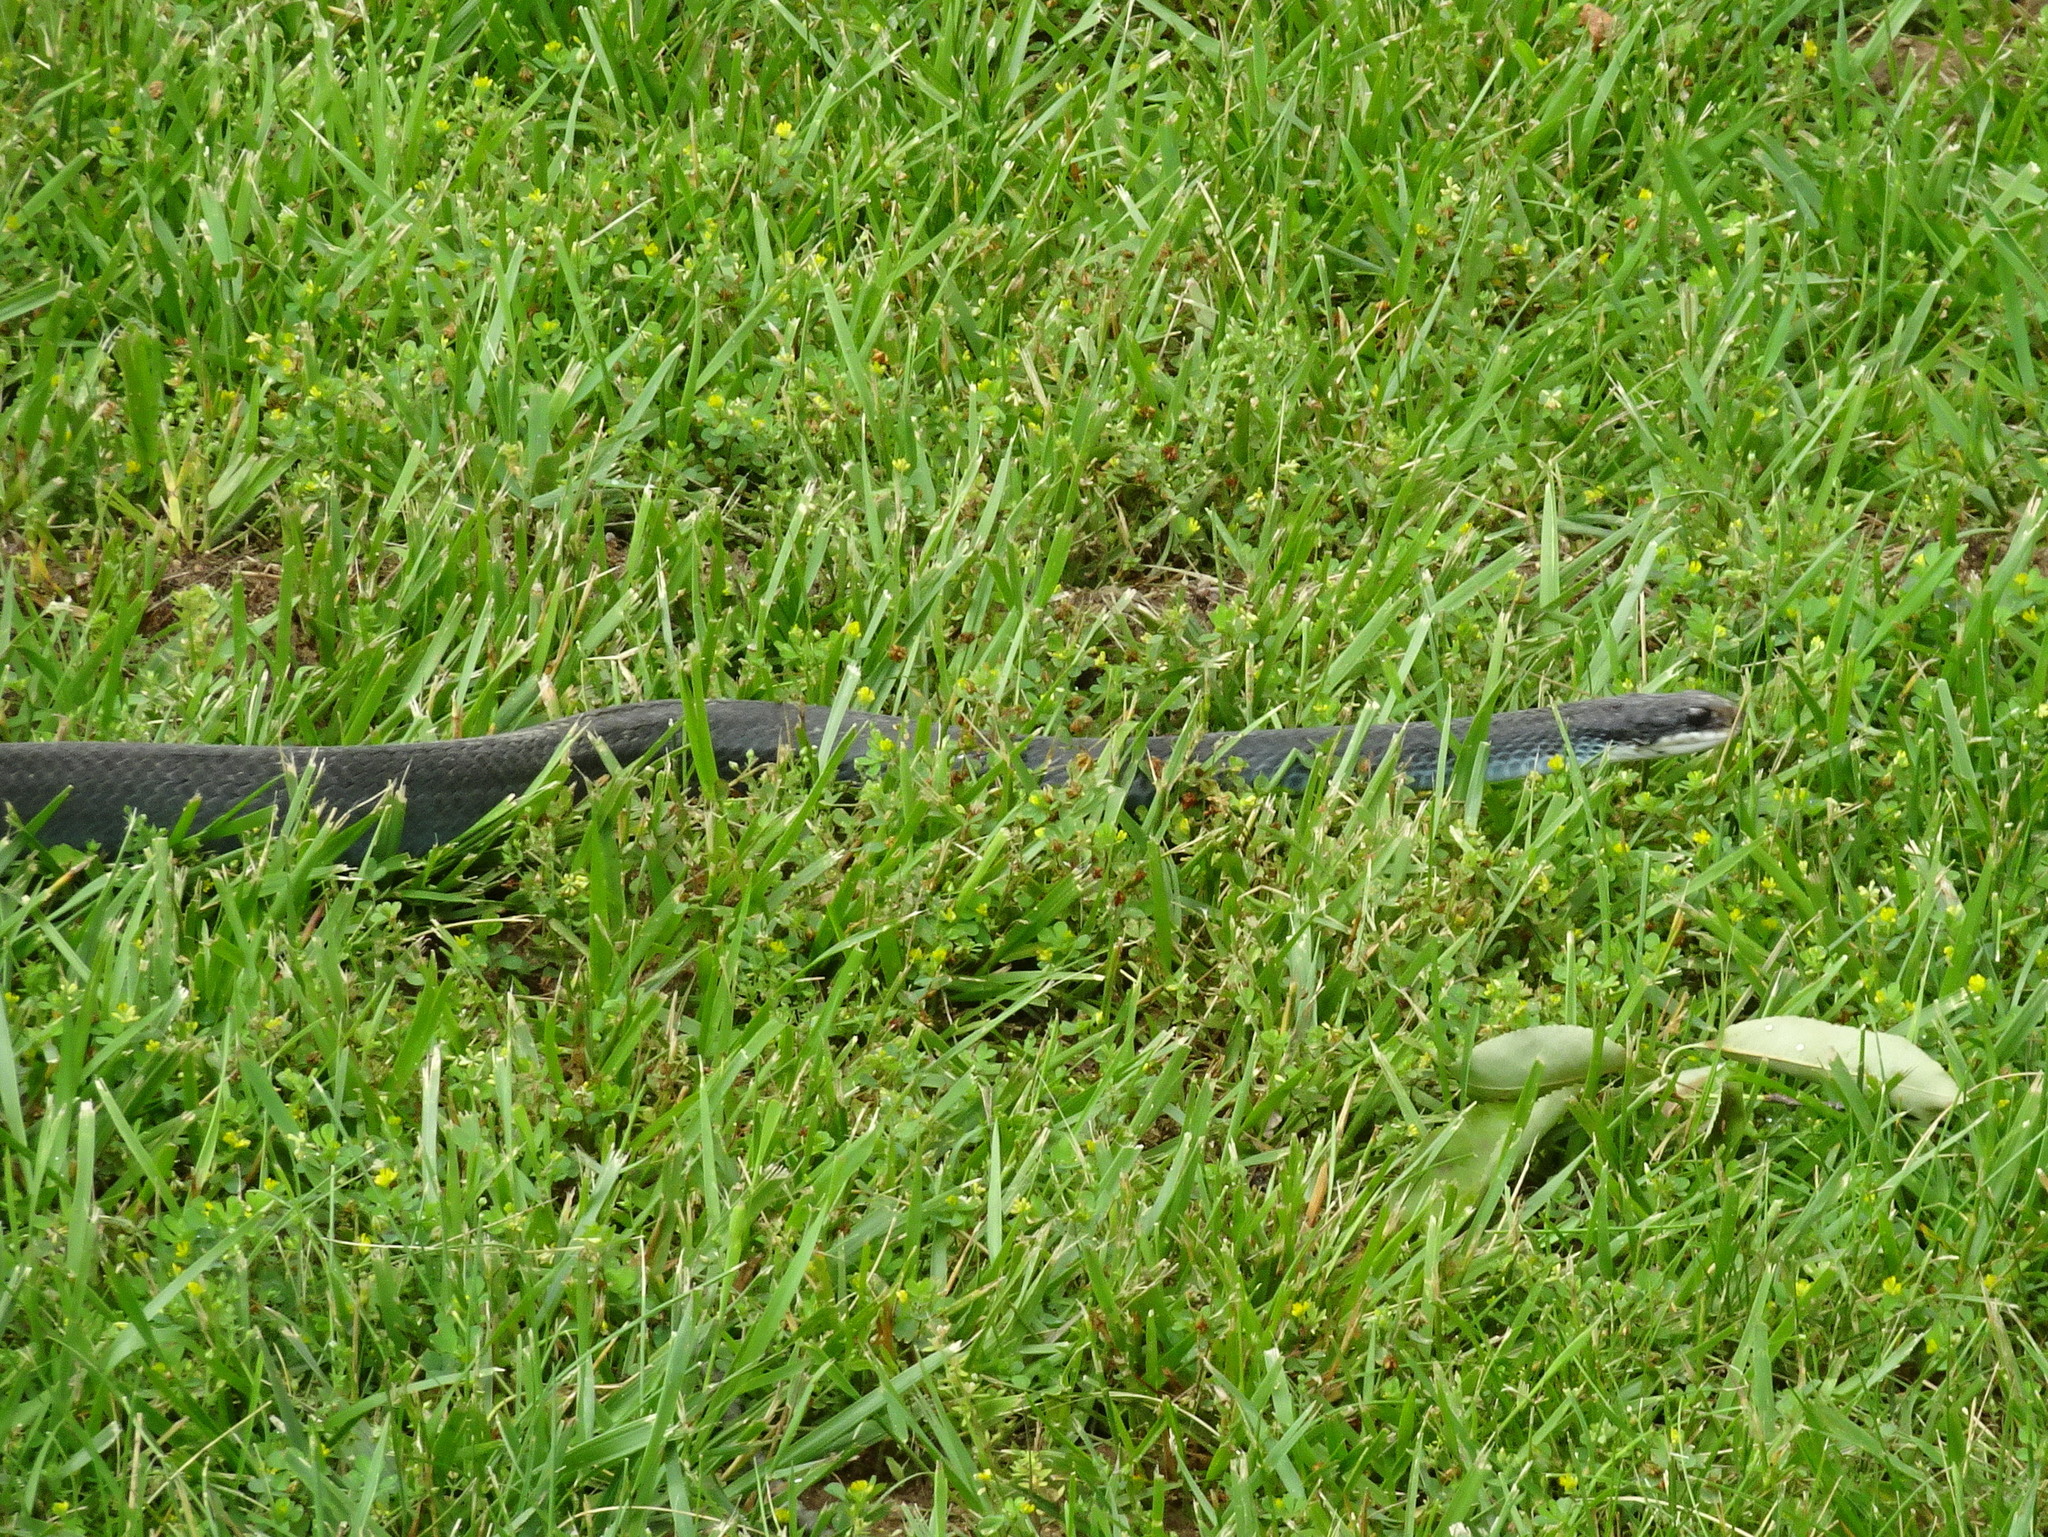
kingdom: Animalia
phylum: Chordata
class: Squamata
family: Colubridae
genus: Coluber
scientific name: Coluber constrictor
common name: Eastern racer
